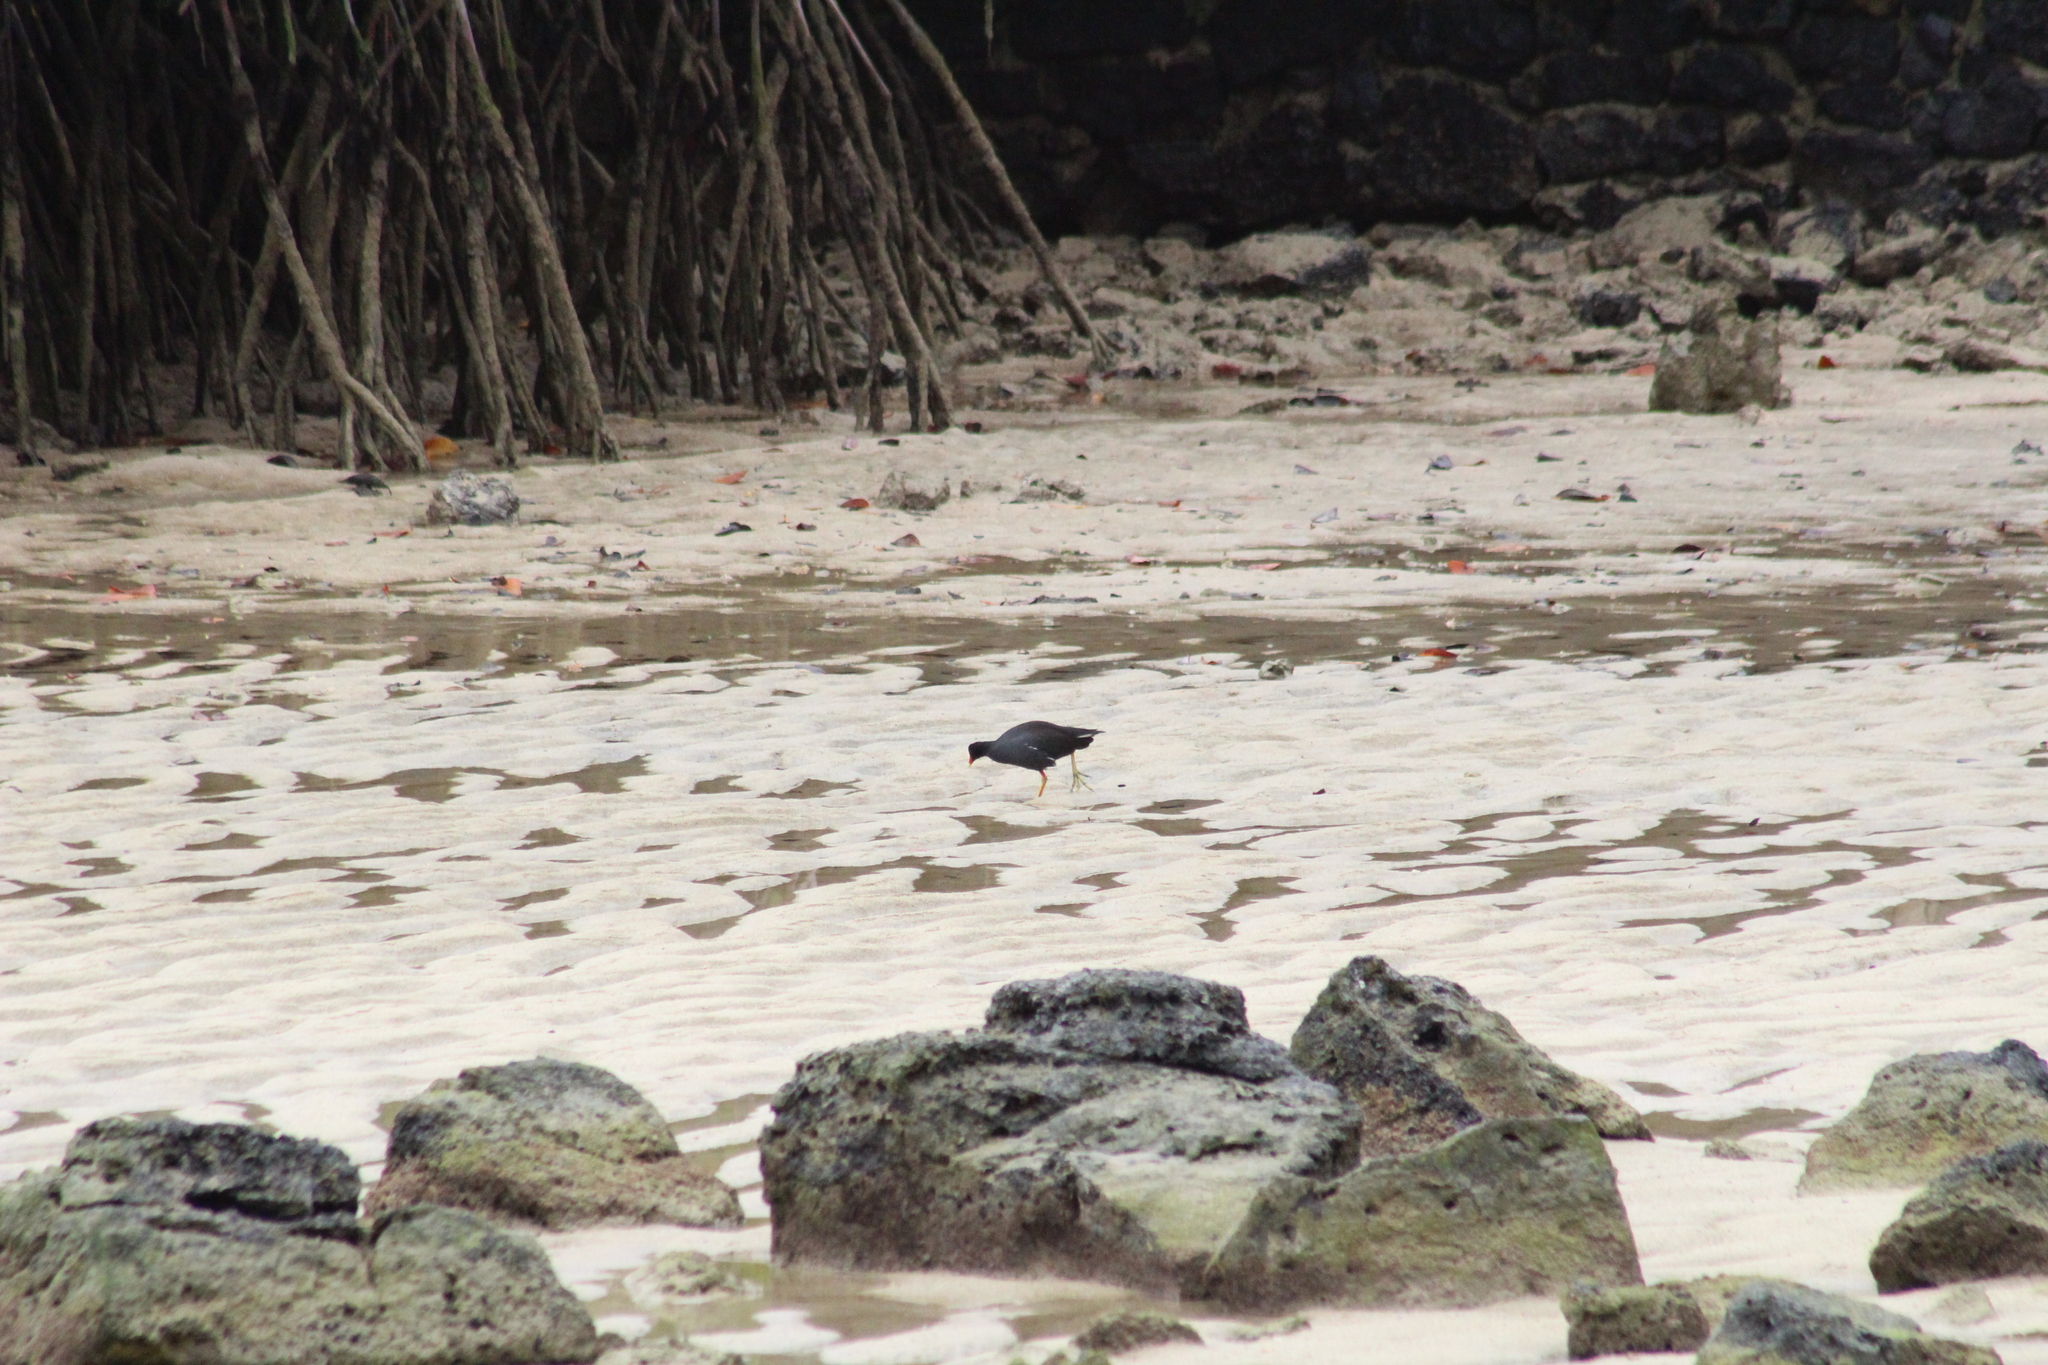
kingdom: Animalia
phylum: Chordata
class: Aves
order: Gruiformes
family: Rallidae
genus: Gallinula
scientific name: Gallinula chloropus
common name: Common moorhen
